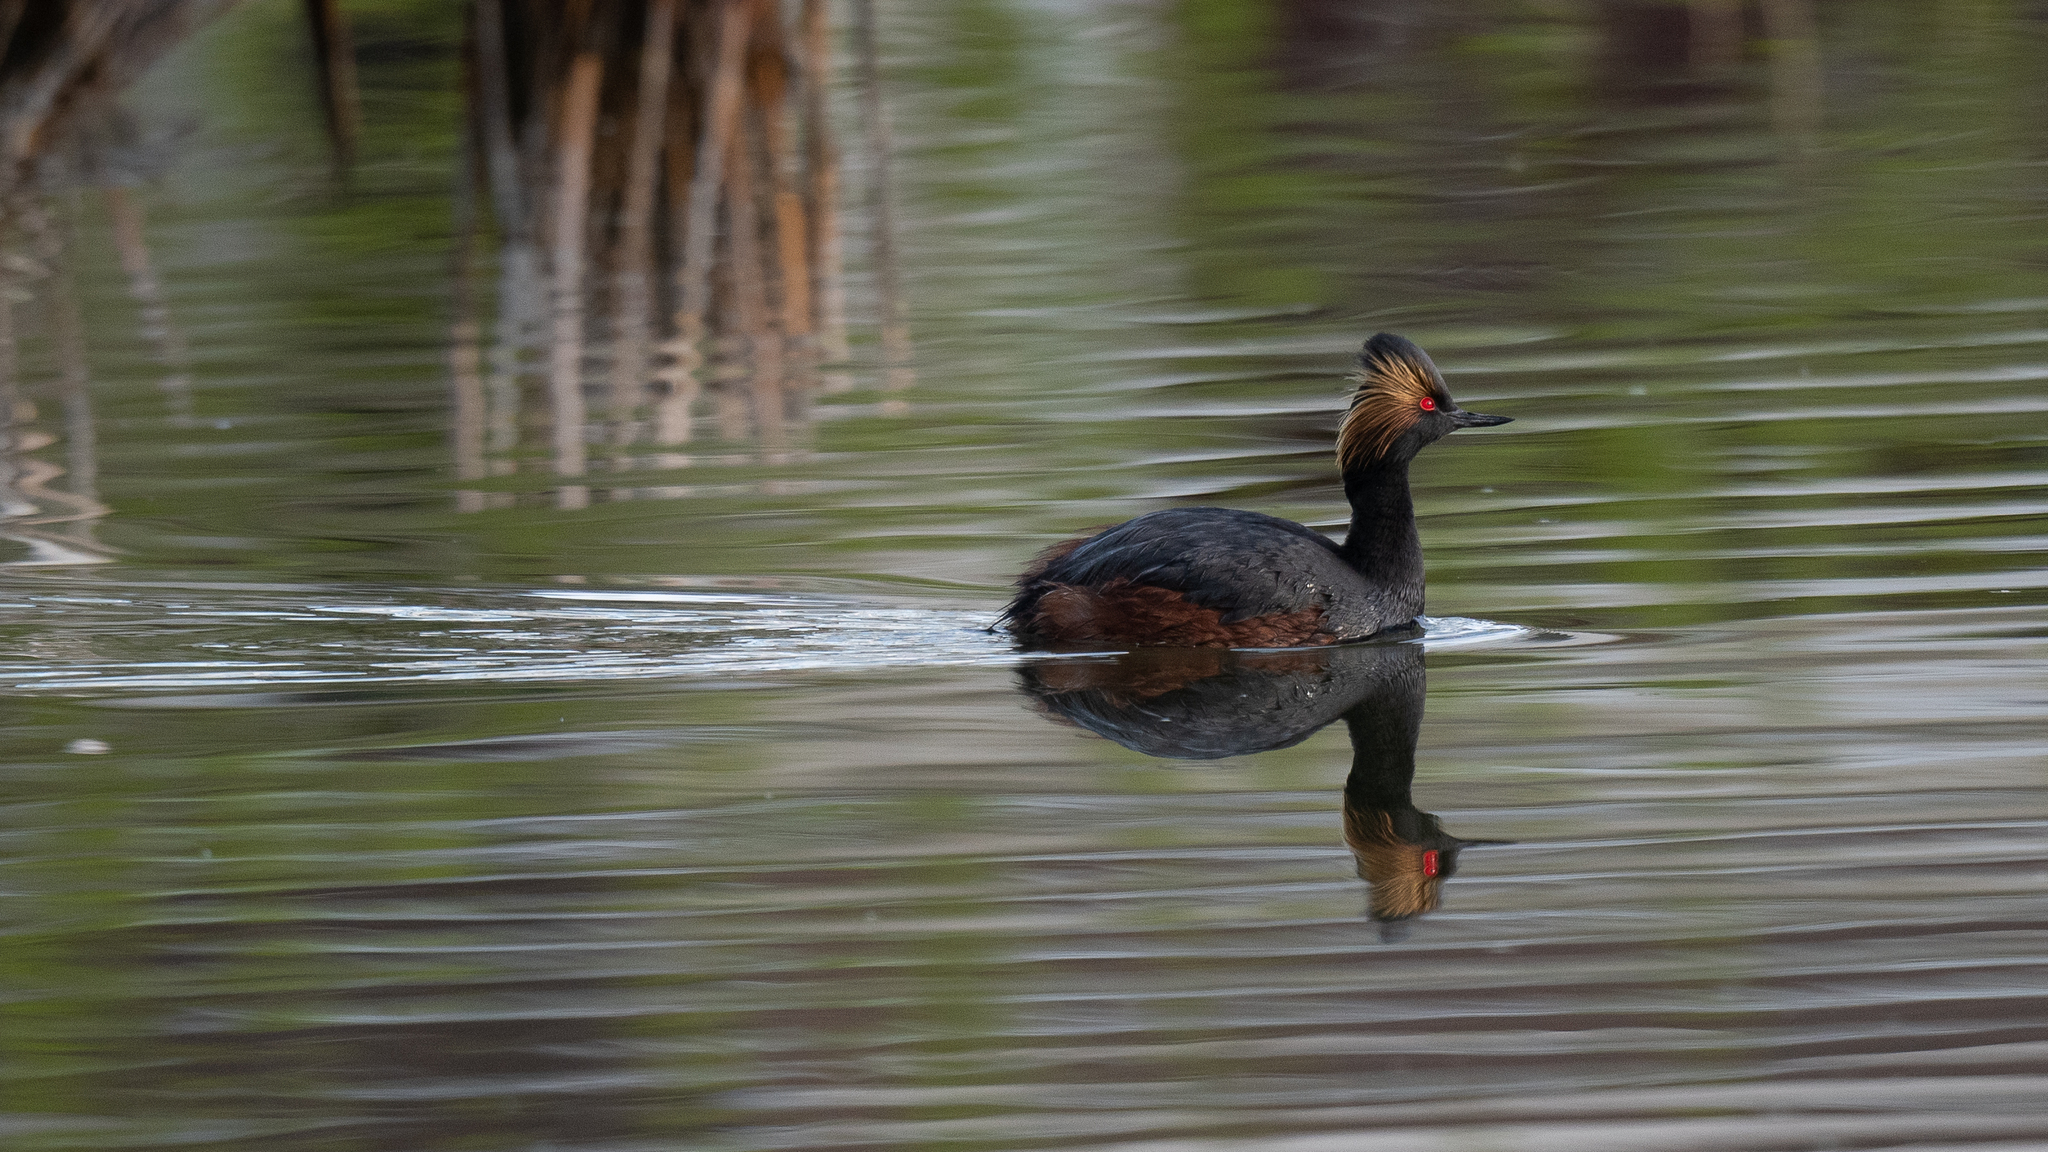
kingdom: Animalia
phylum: Chordata
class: Aves
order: Podicipediformes
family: Podicipedidae
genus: Podiceps
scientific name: Podiceps nigricollis
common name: Black-necked grebe
